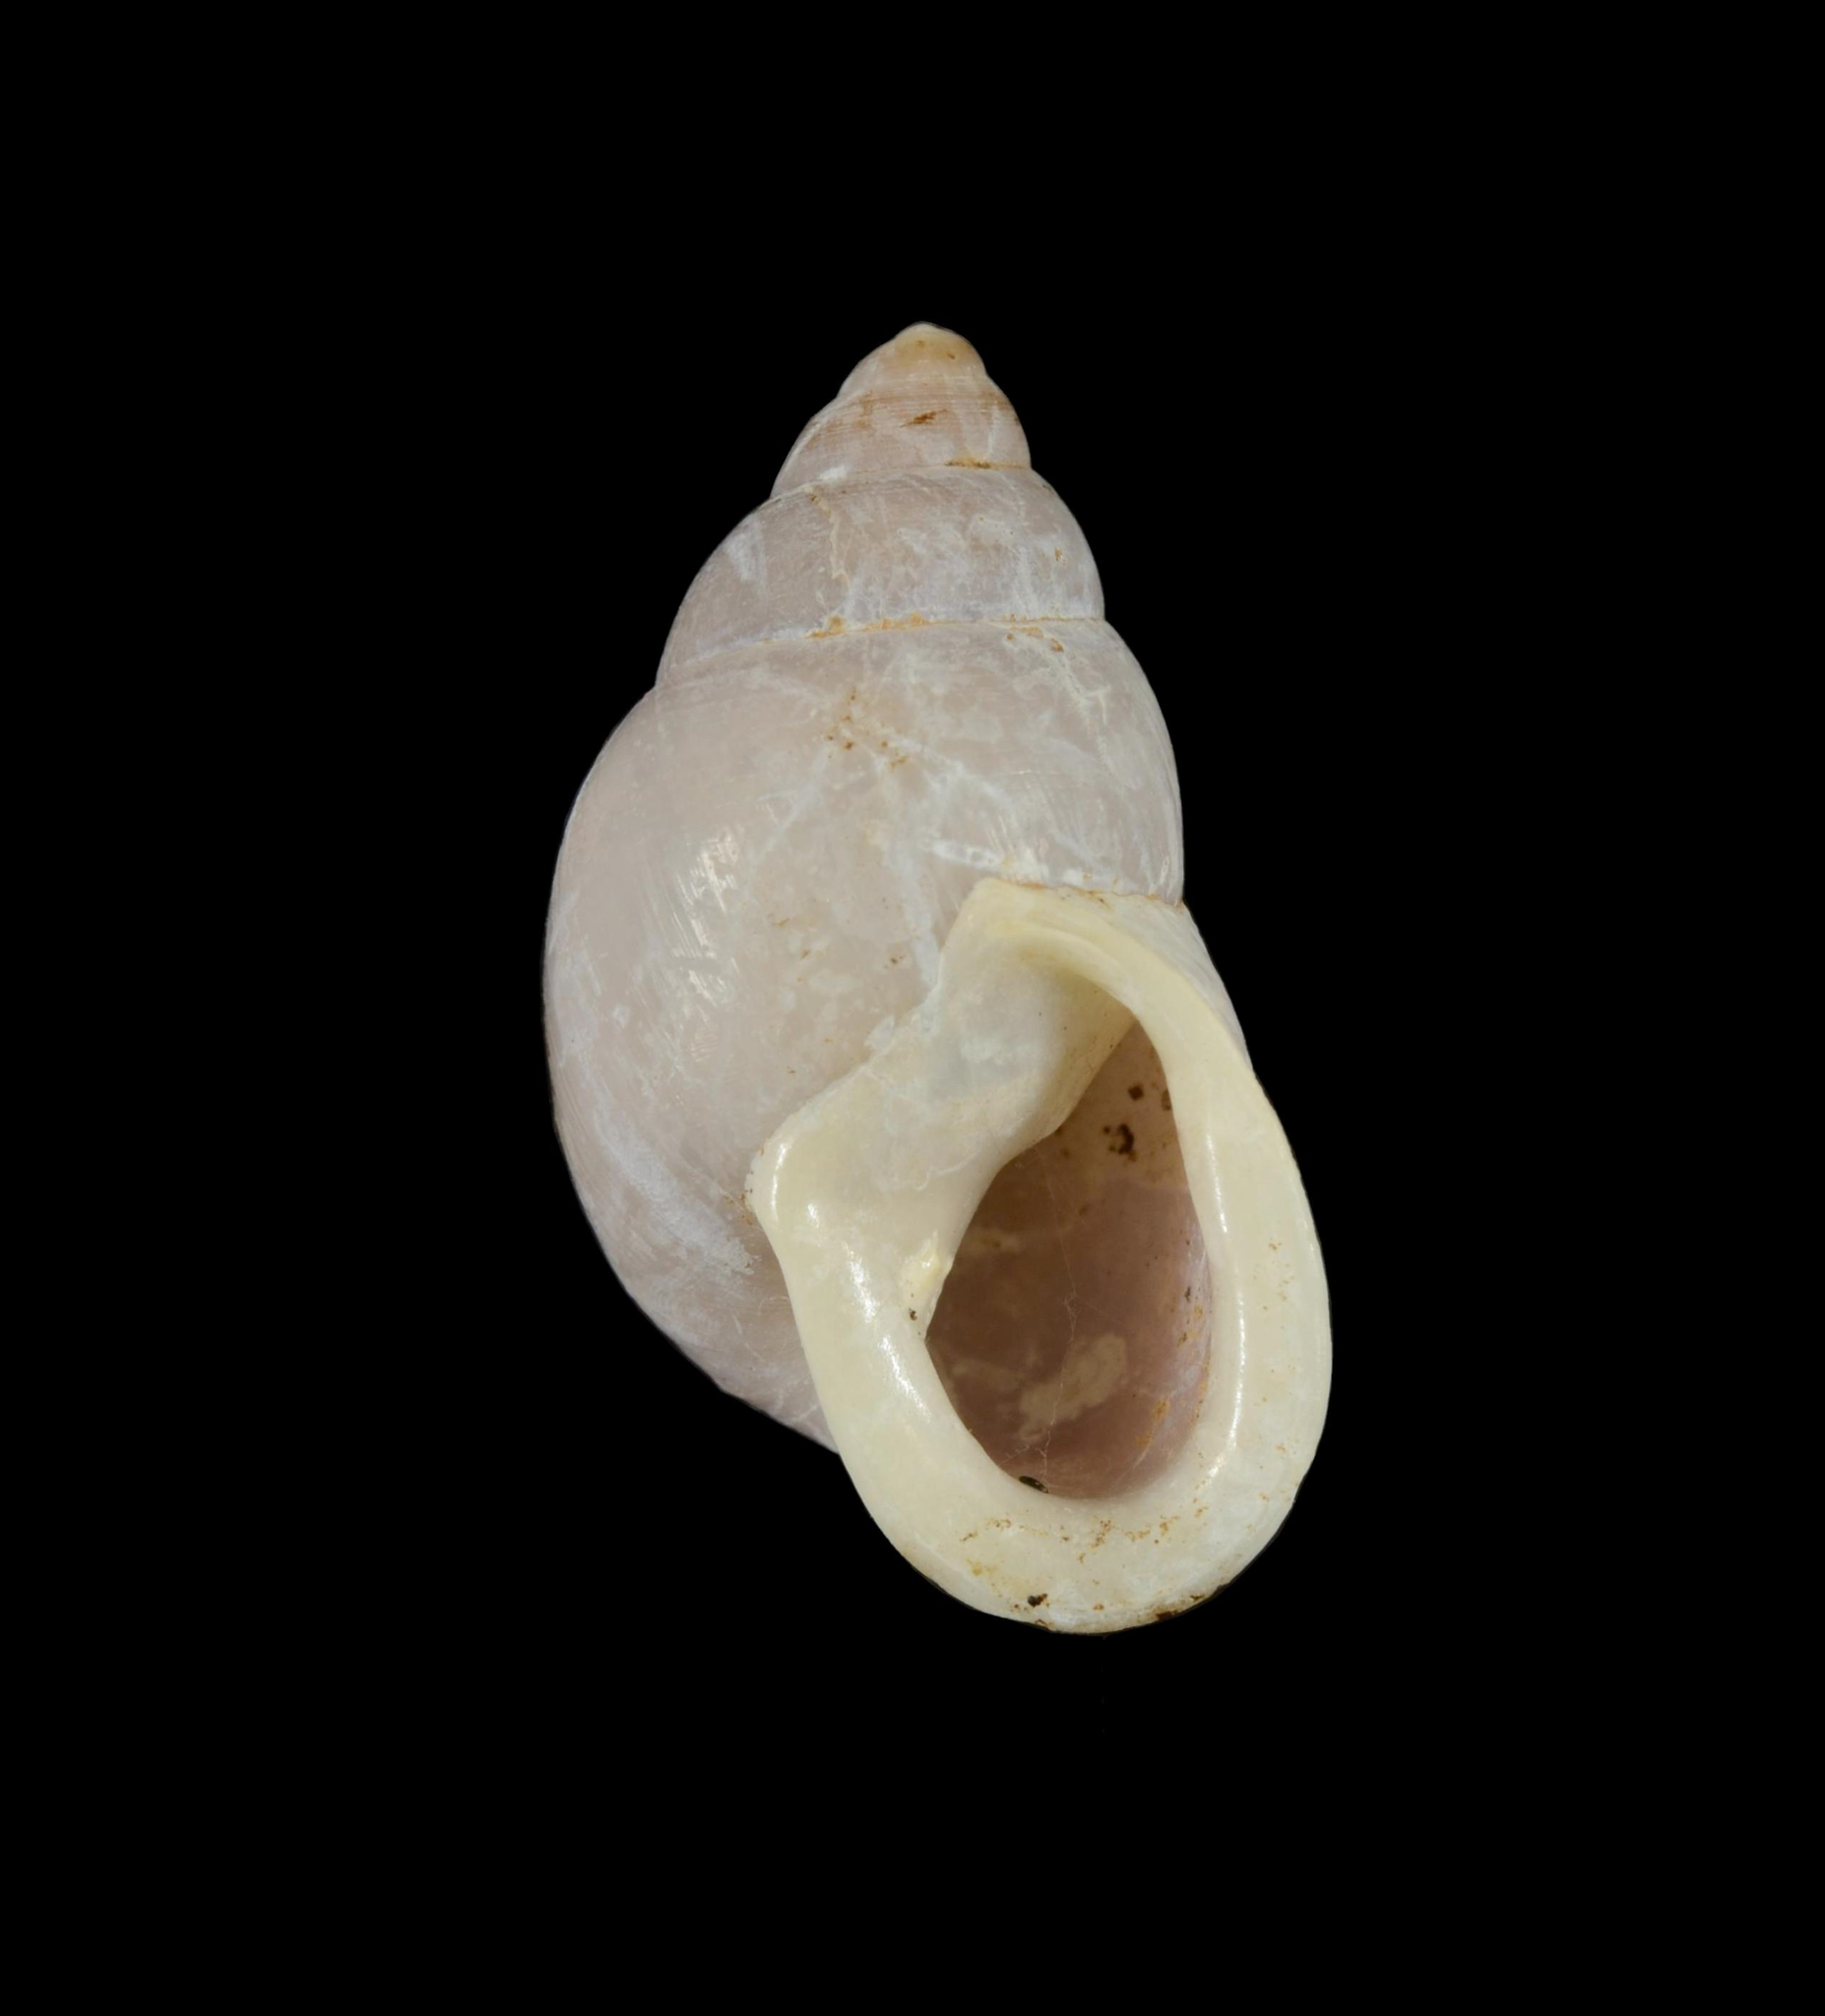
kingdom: Animalia
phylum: Mollusca
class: Gastropoda
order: Stylommatophora
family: Partulidae
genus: Partula
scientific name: Partula salifana
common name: Mount alifana partula
